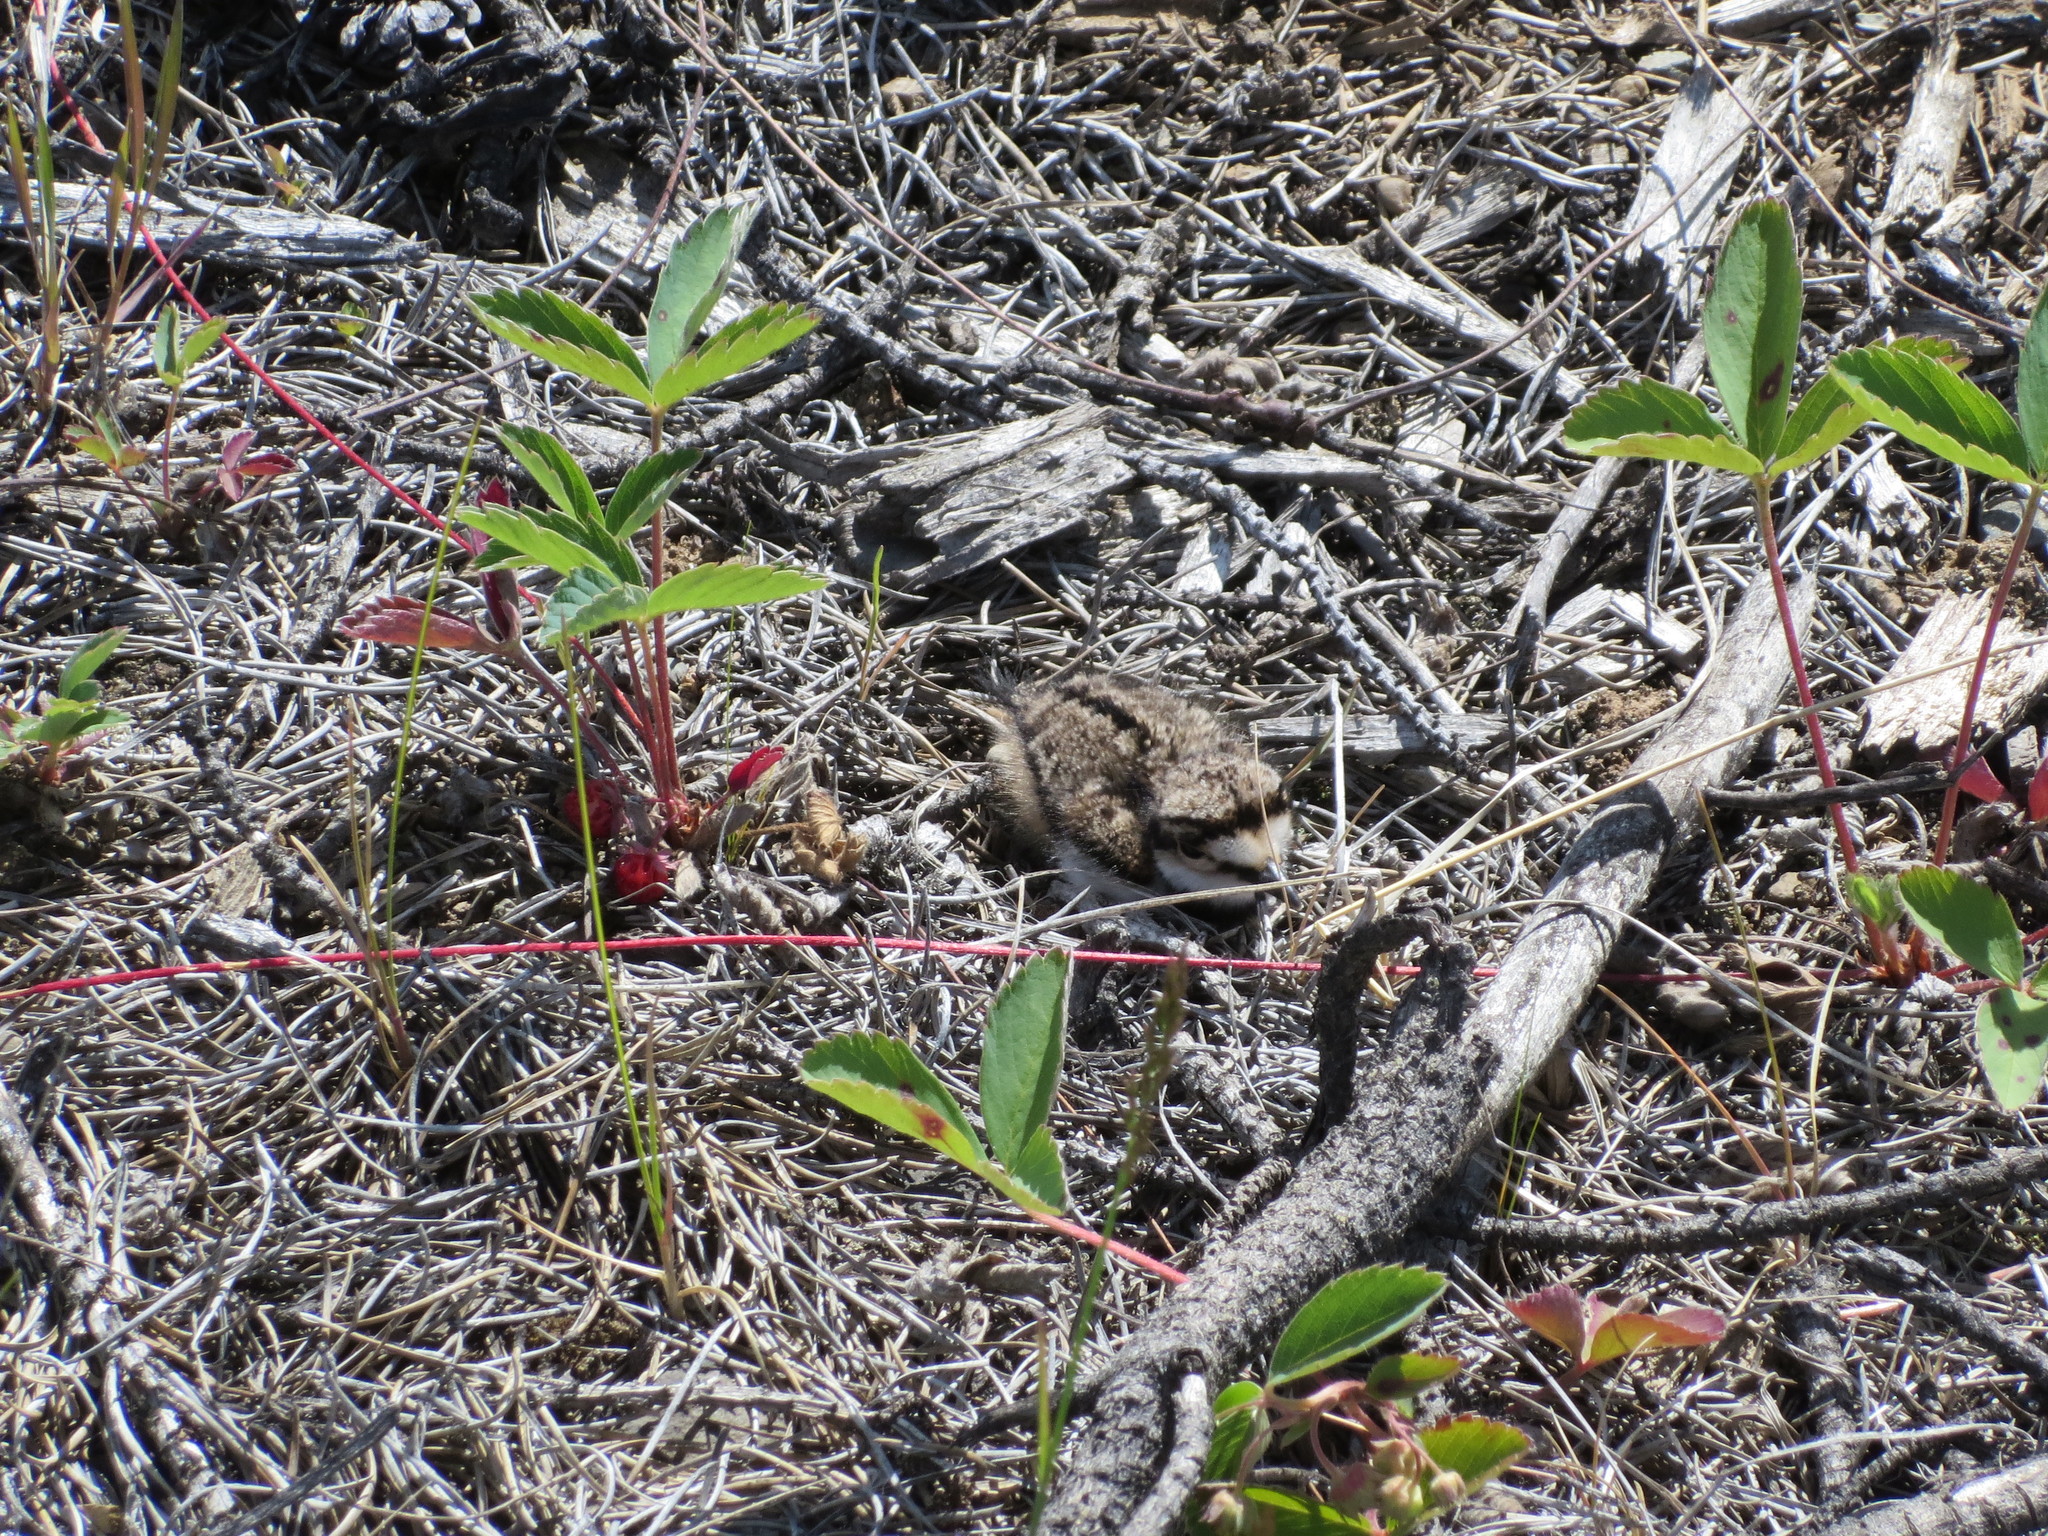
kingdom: Animalia
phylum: Chordata
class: Aves
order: Charadriiformes
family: Charadriidae
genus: Charadrius
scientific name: Charadrius vociferus
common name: Killdeer
